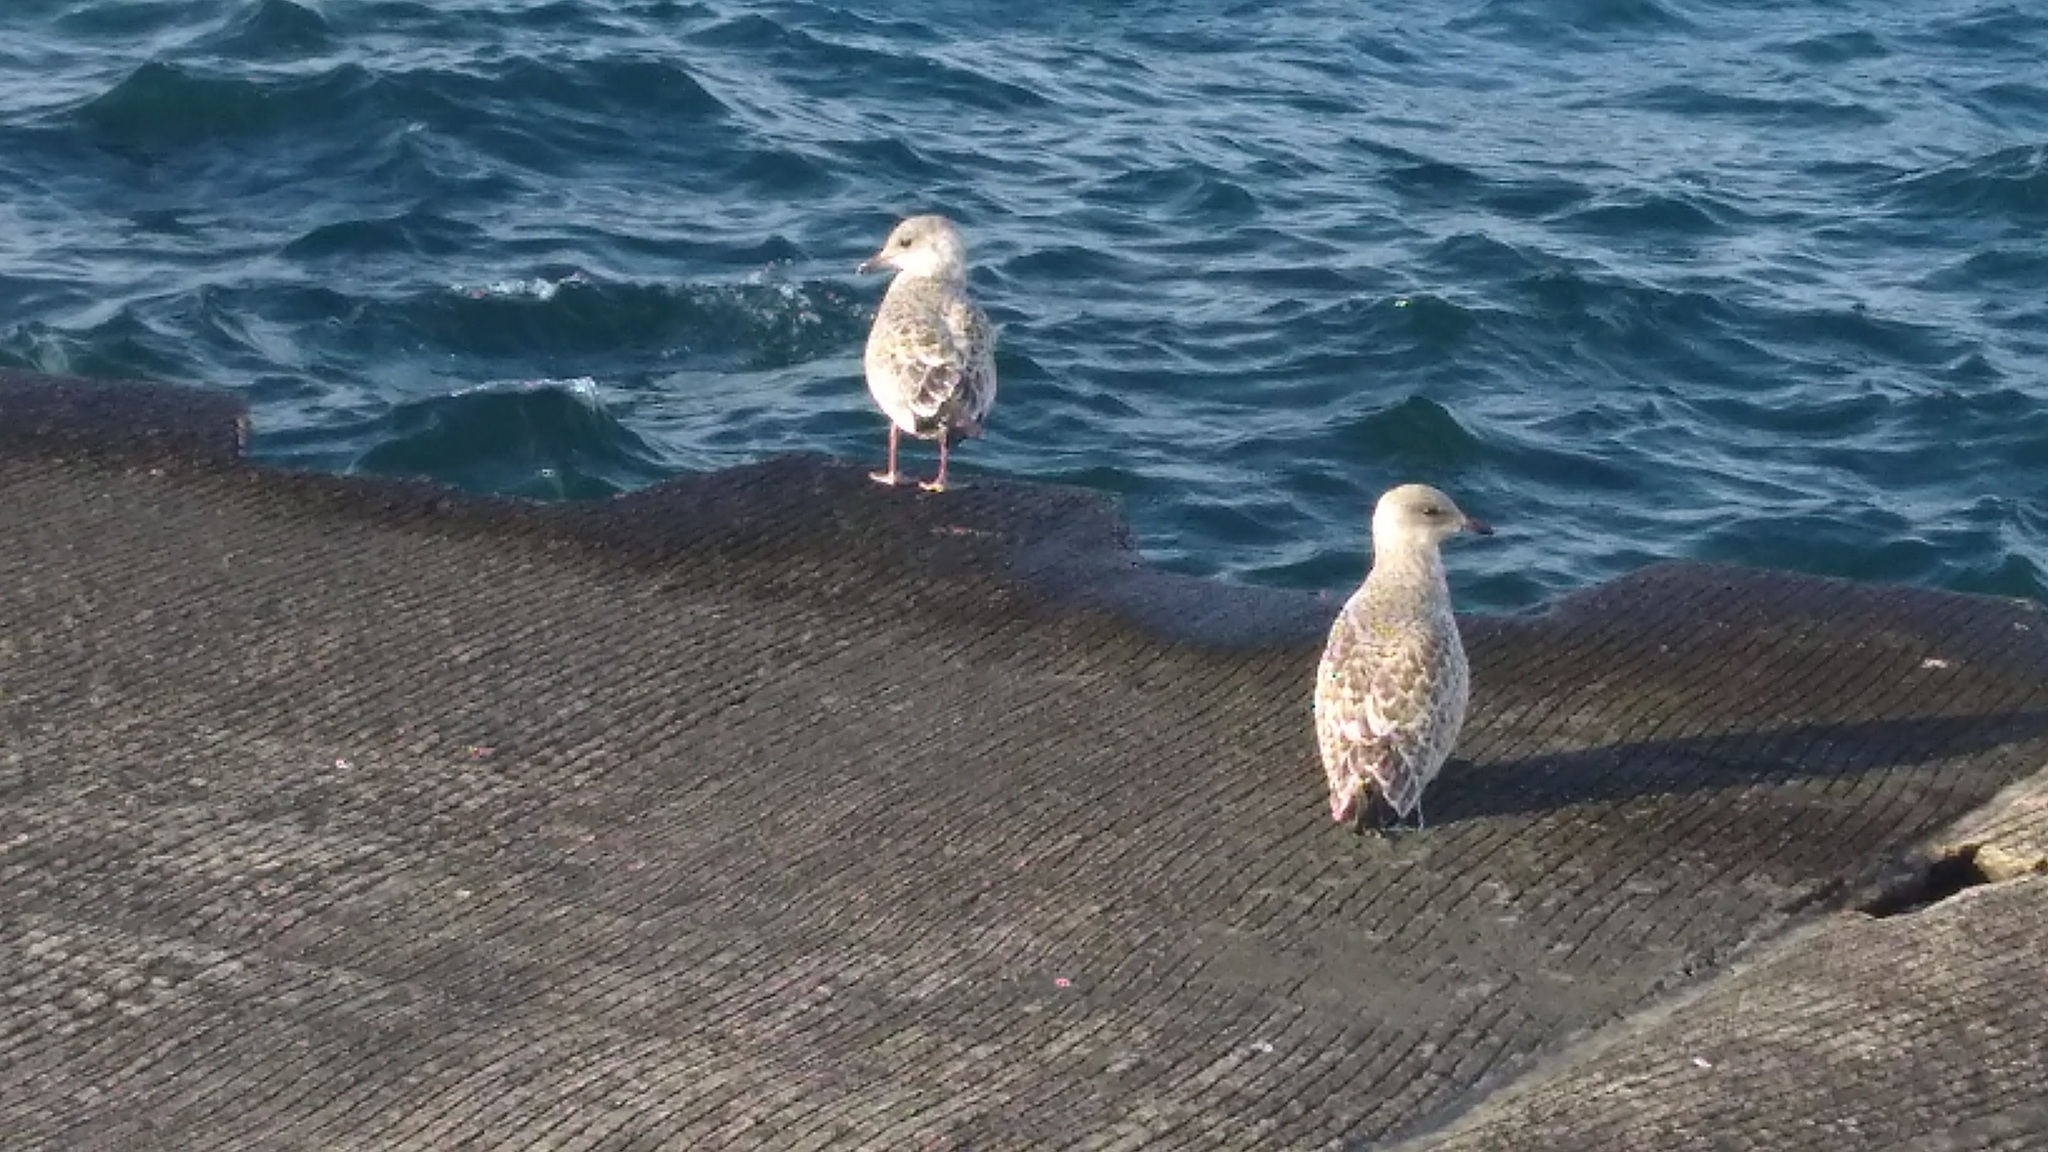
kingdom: Animalia
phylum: Chordata
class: Aves
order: Charadriiformes
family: Laridae
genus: Larus
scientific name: Larus delawarensis
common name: Ring-billed gull
